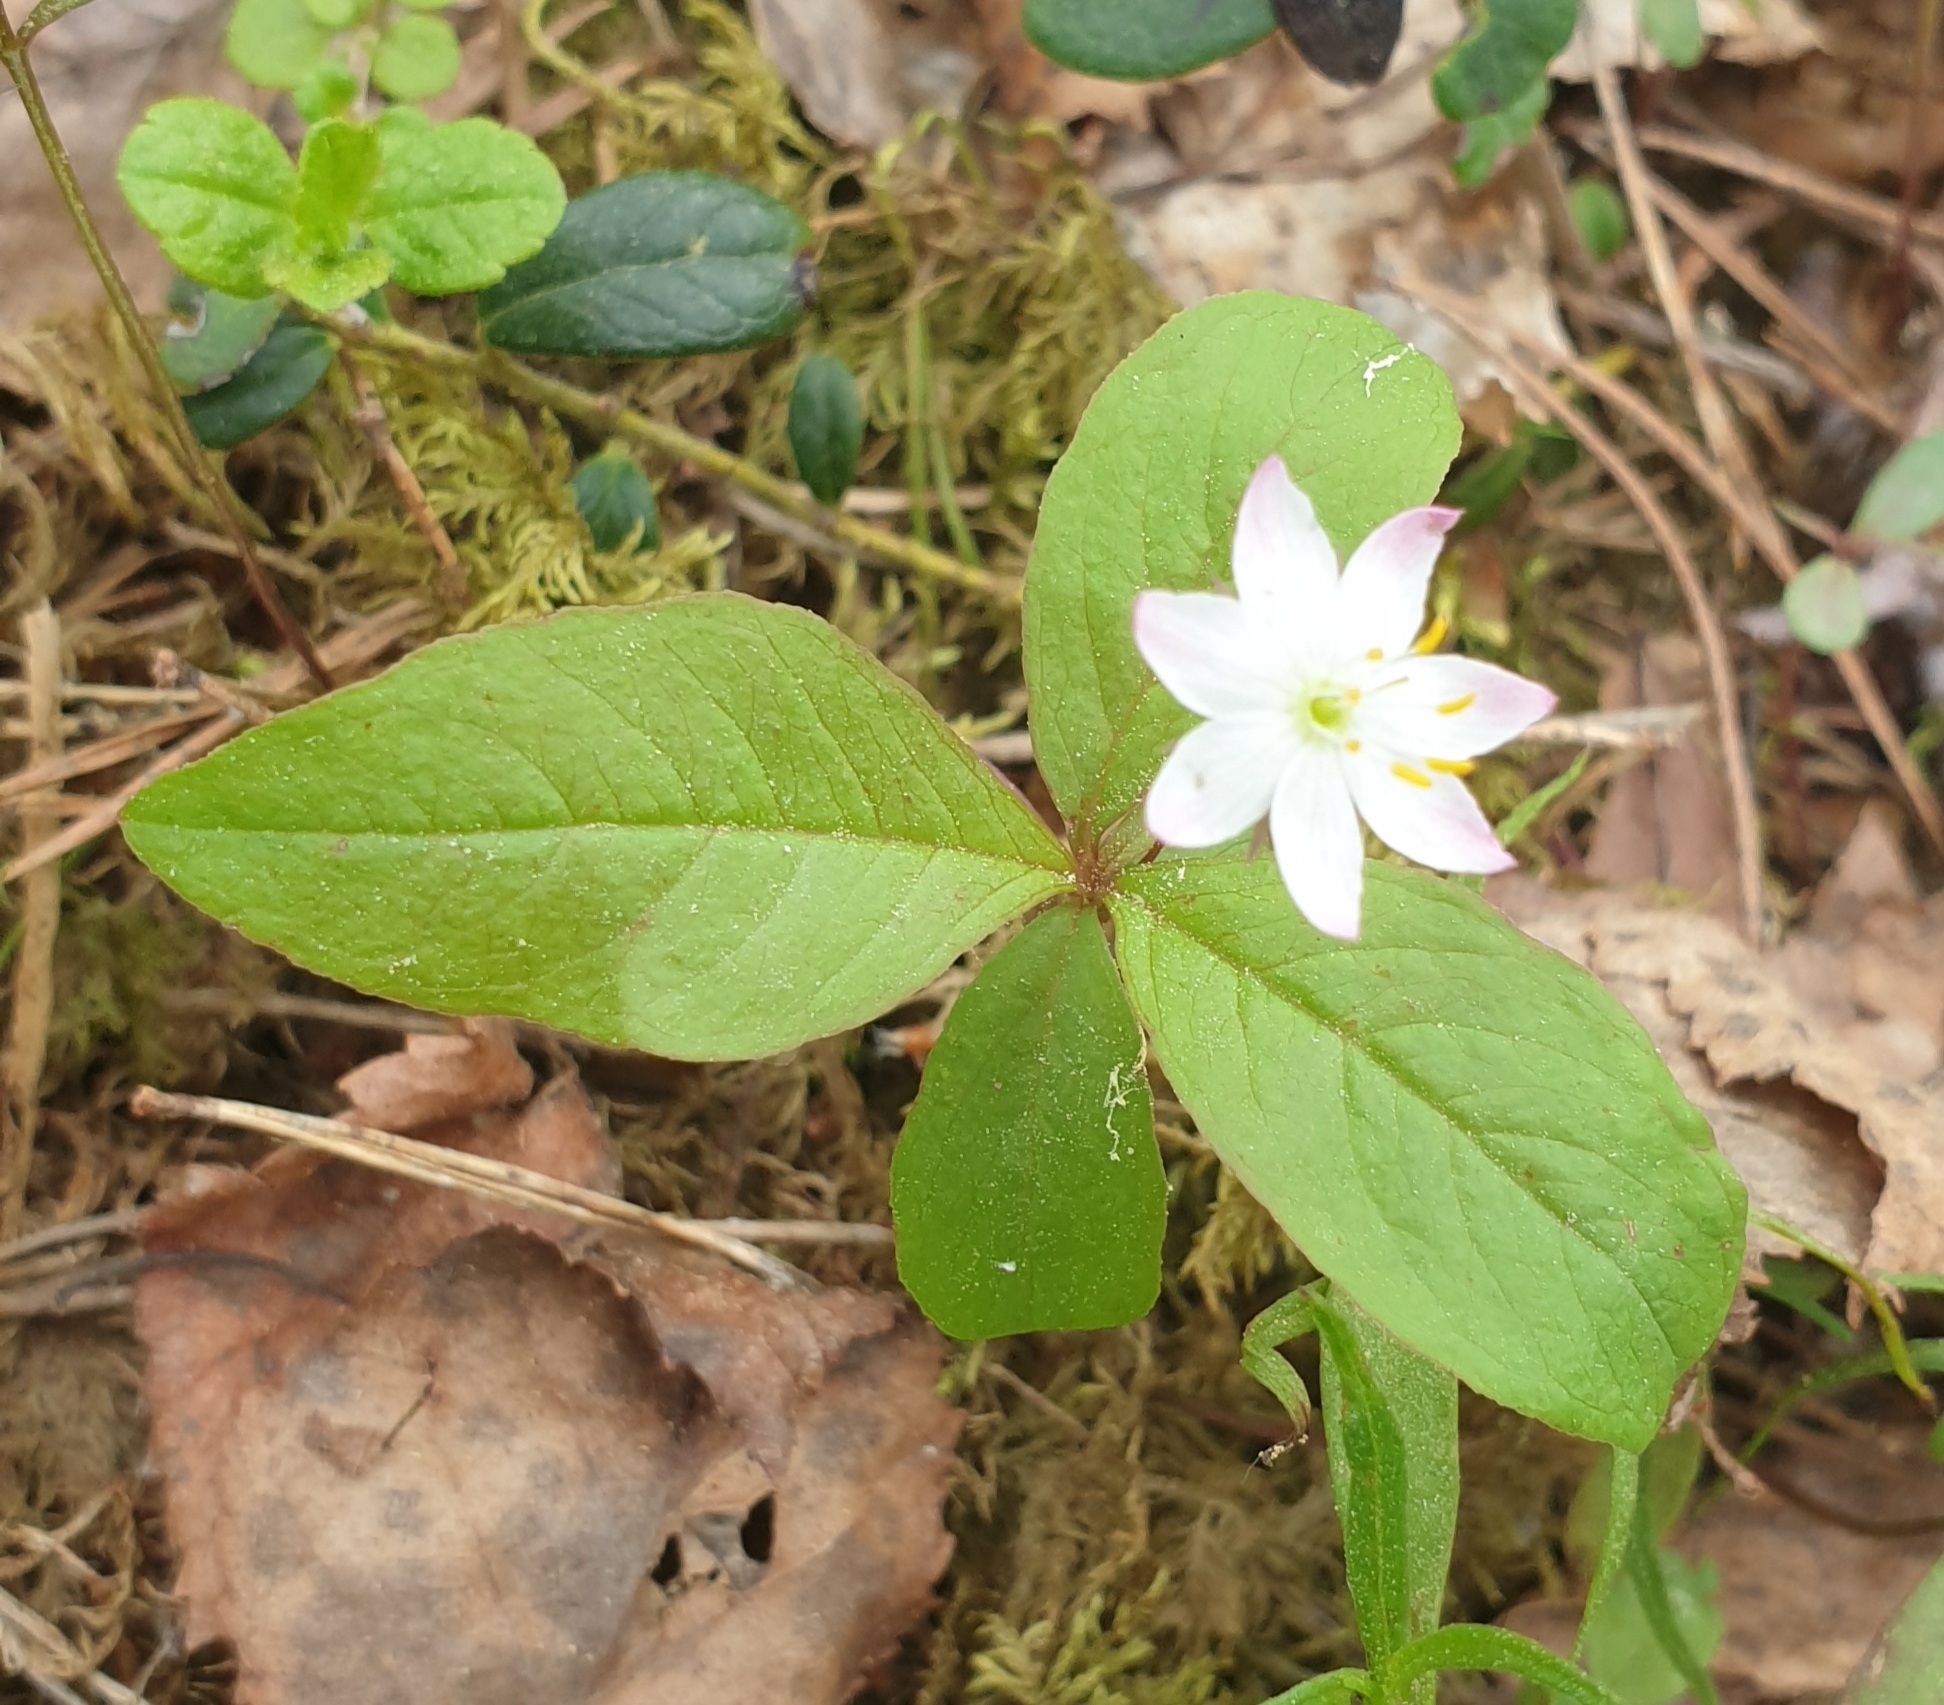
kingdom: Plantae
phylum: Tracheophyta
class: Magnoliopsida
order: Ericales
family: Primulaceae
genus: Lysimachia
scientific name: Lysimachia europaea
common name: Arctic starflower
